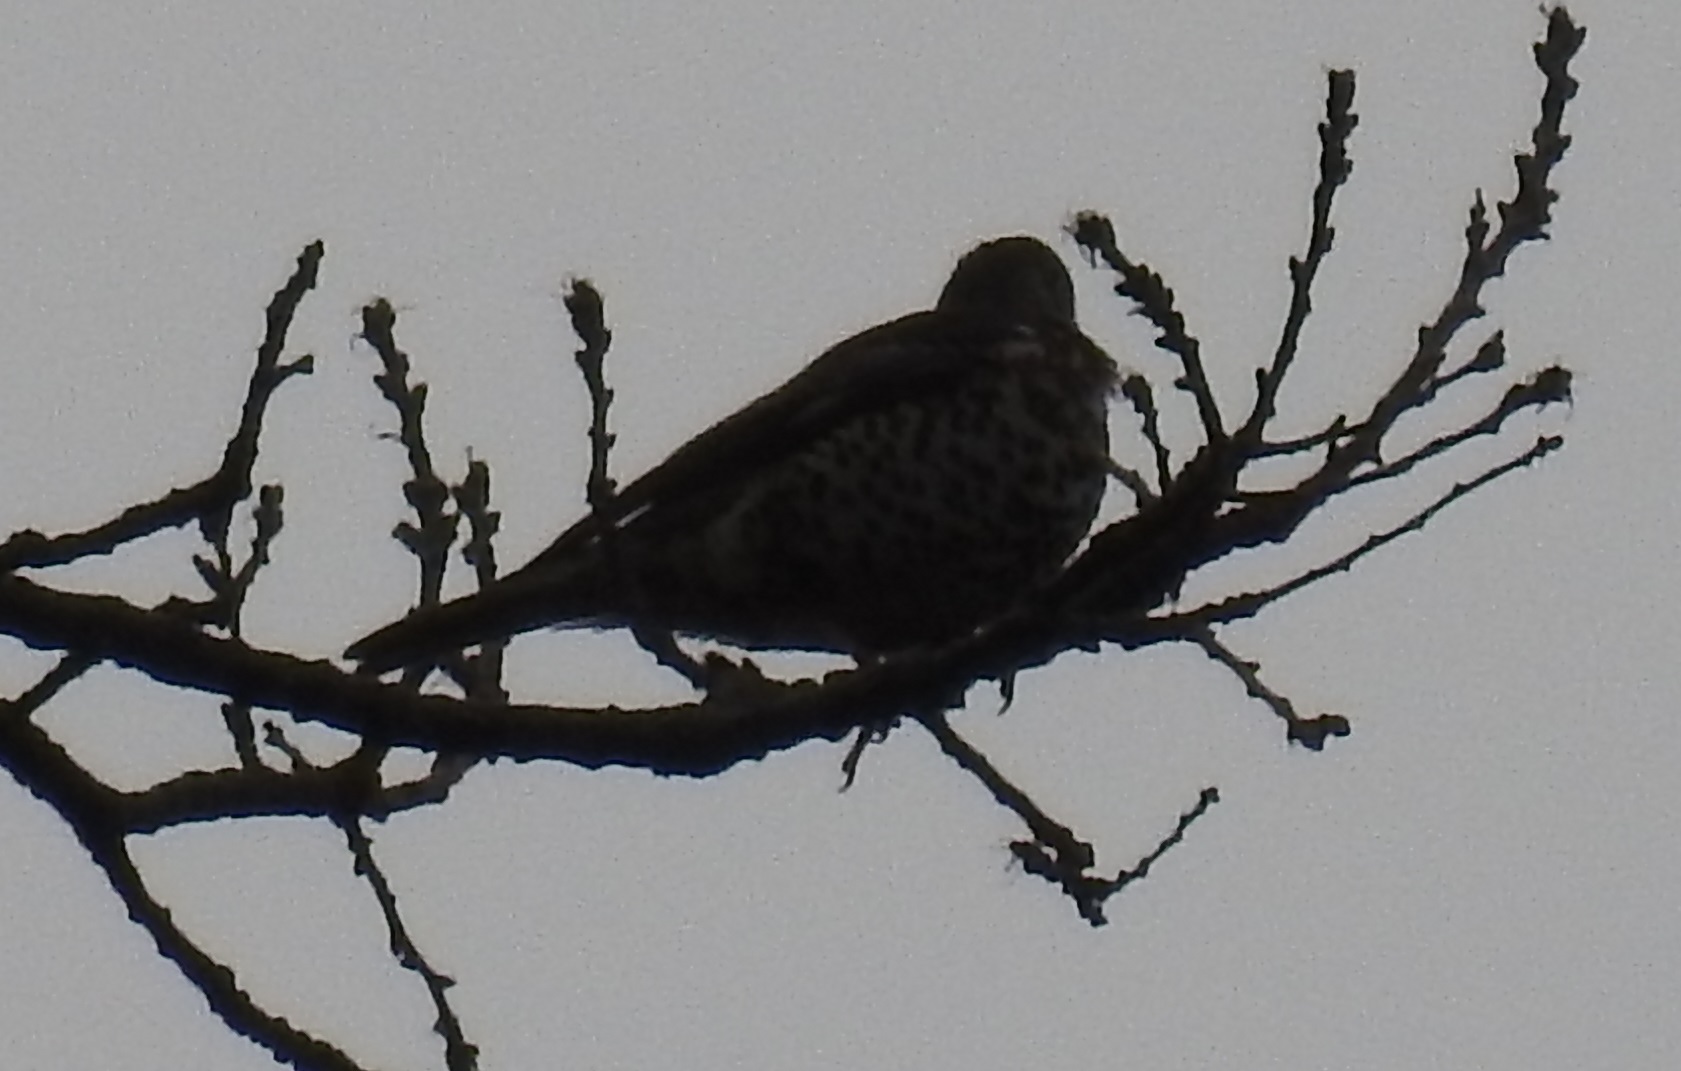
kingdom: Animalia
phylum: Chordata
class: Aves
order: Passeriformes
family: Turdidae
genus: Turdus
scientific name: Turdus viscivorus
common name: Mistle thrush
